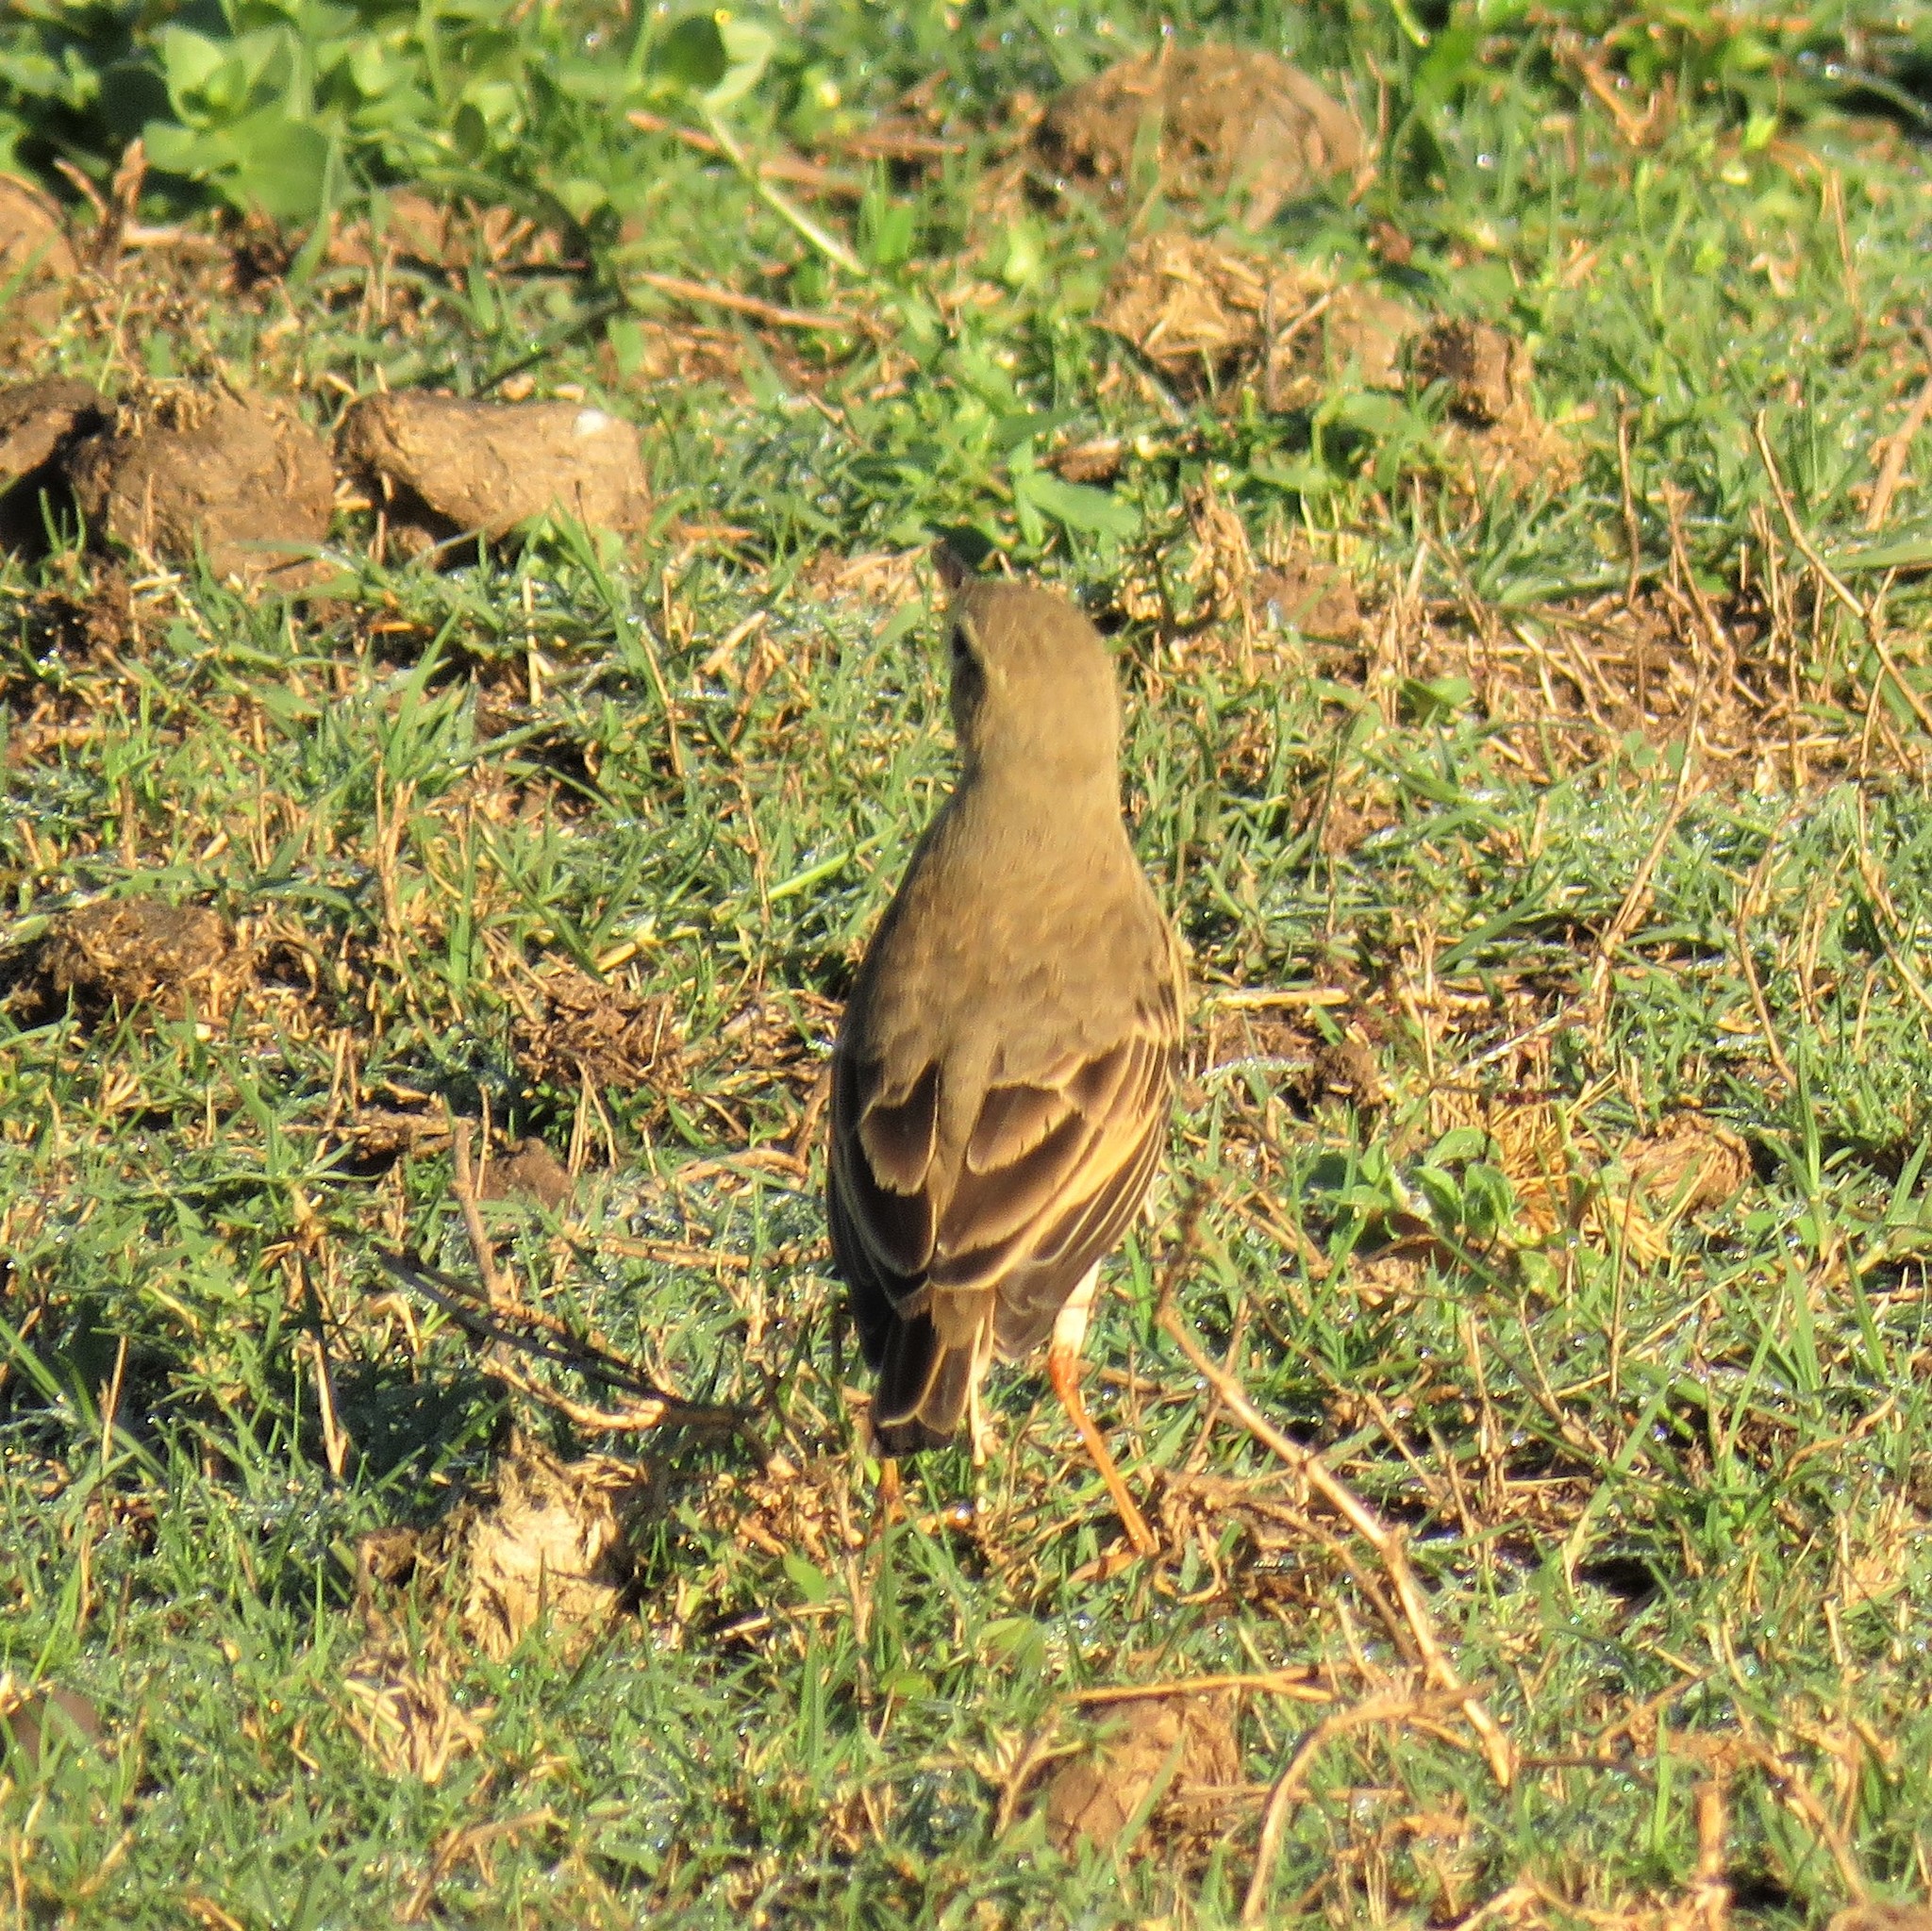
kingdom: Animalia
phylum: Chordata
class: Aves
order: Passeriformes
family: Motacillidae
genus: Anthus
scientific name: Anthus leucophrys
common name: Plain-backed pipit
